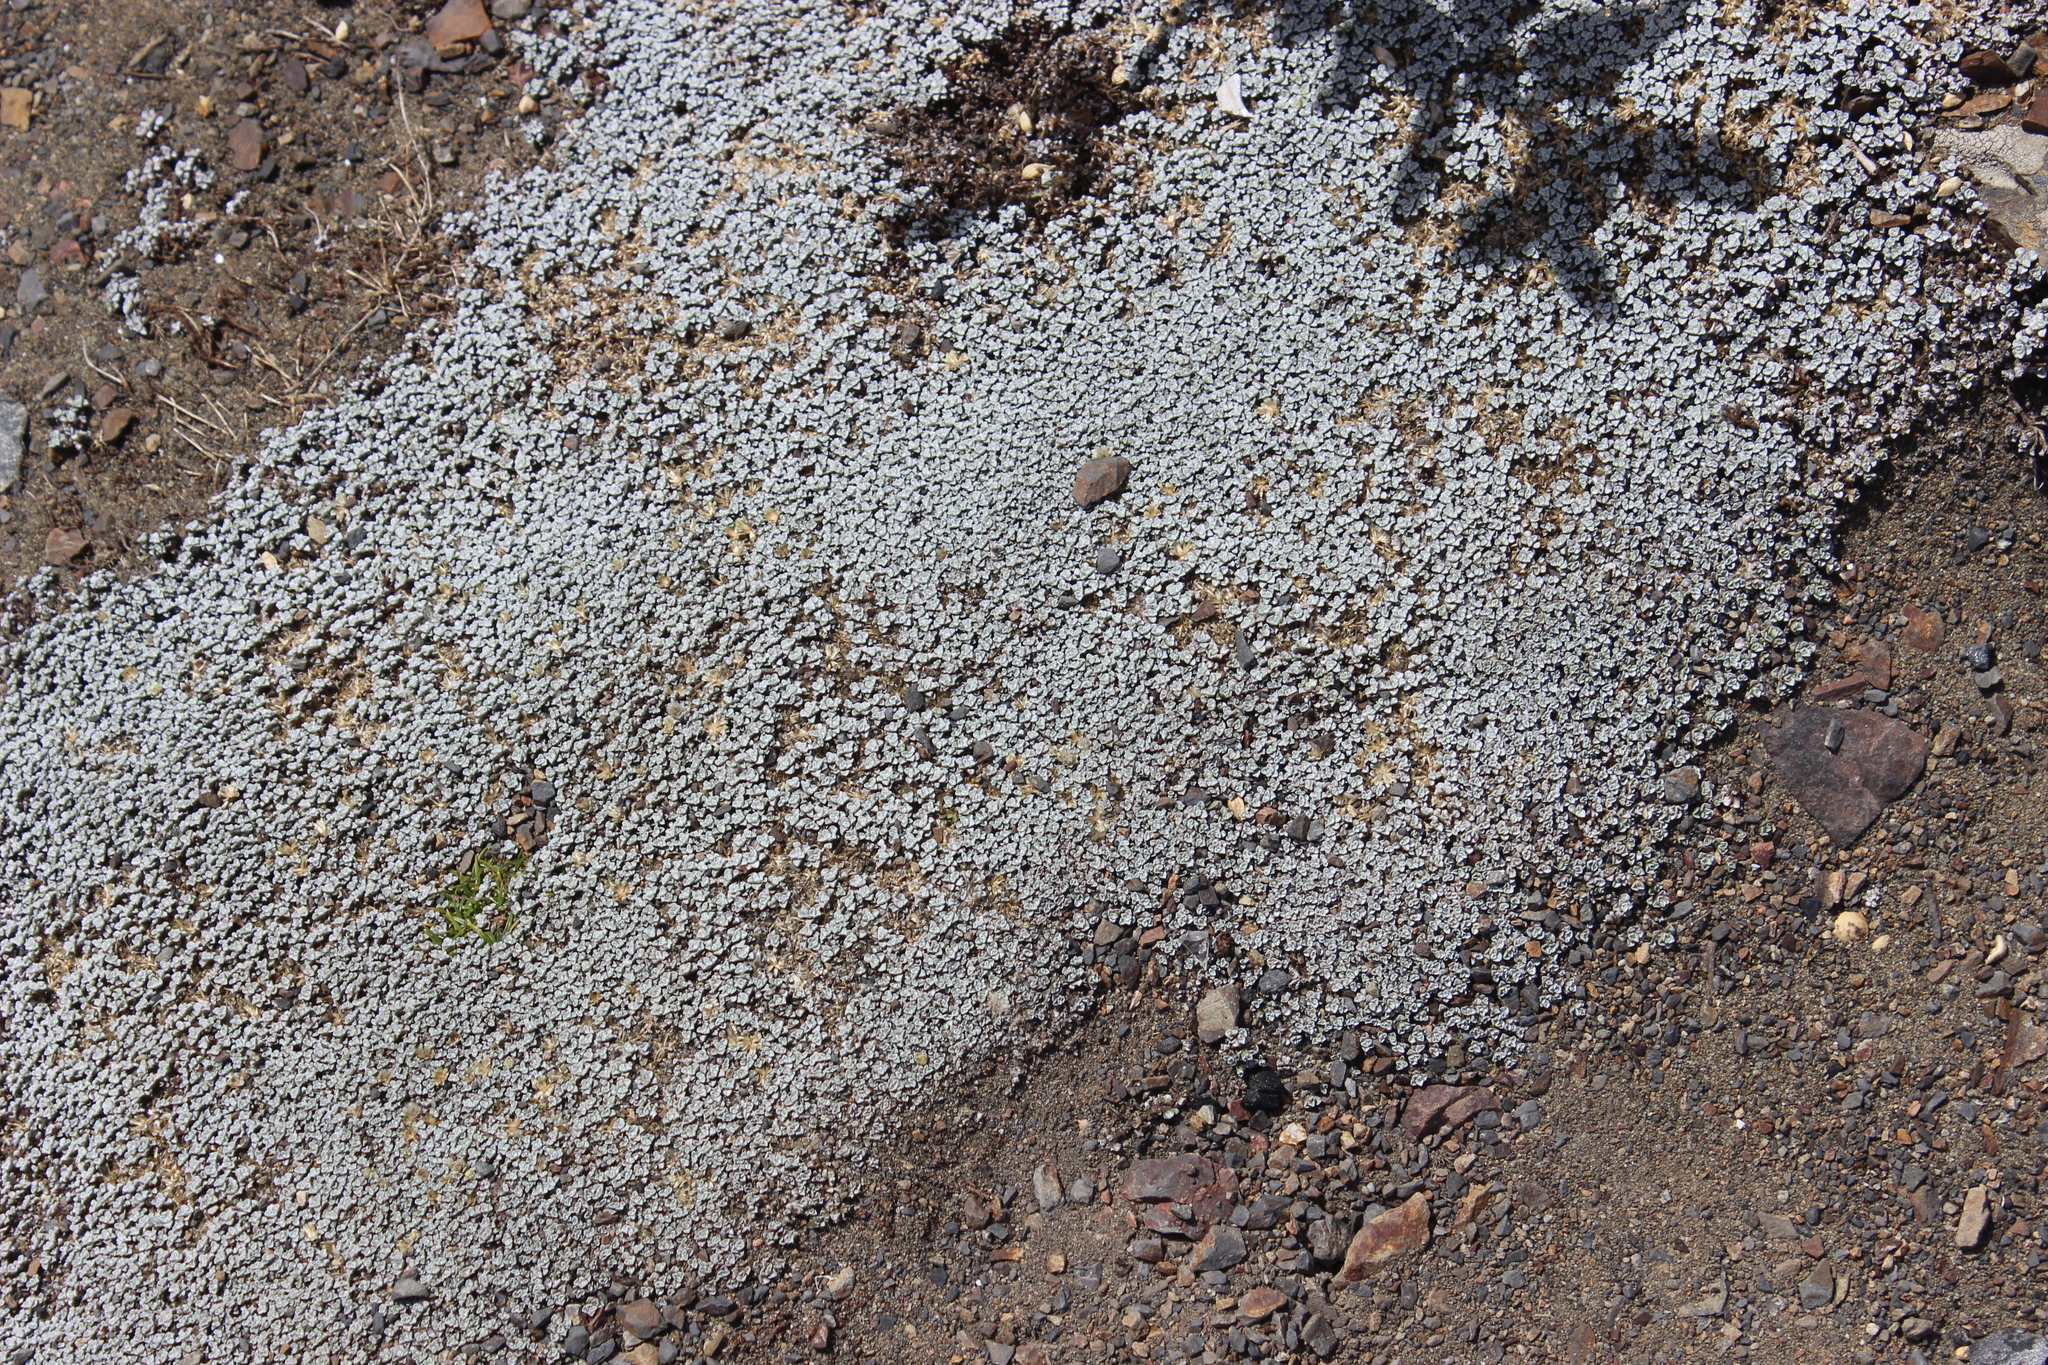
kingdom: Plantae
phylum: Tracheophyta
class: Magnoliopsida
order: Asterales
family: Asteraceae
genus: Raoulia
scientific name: Raoulia hookeri
